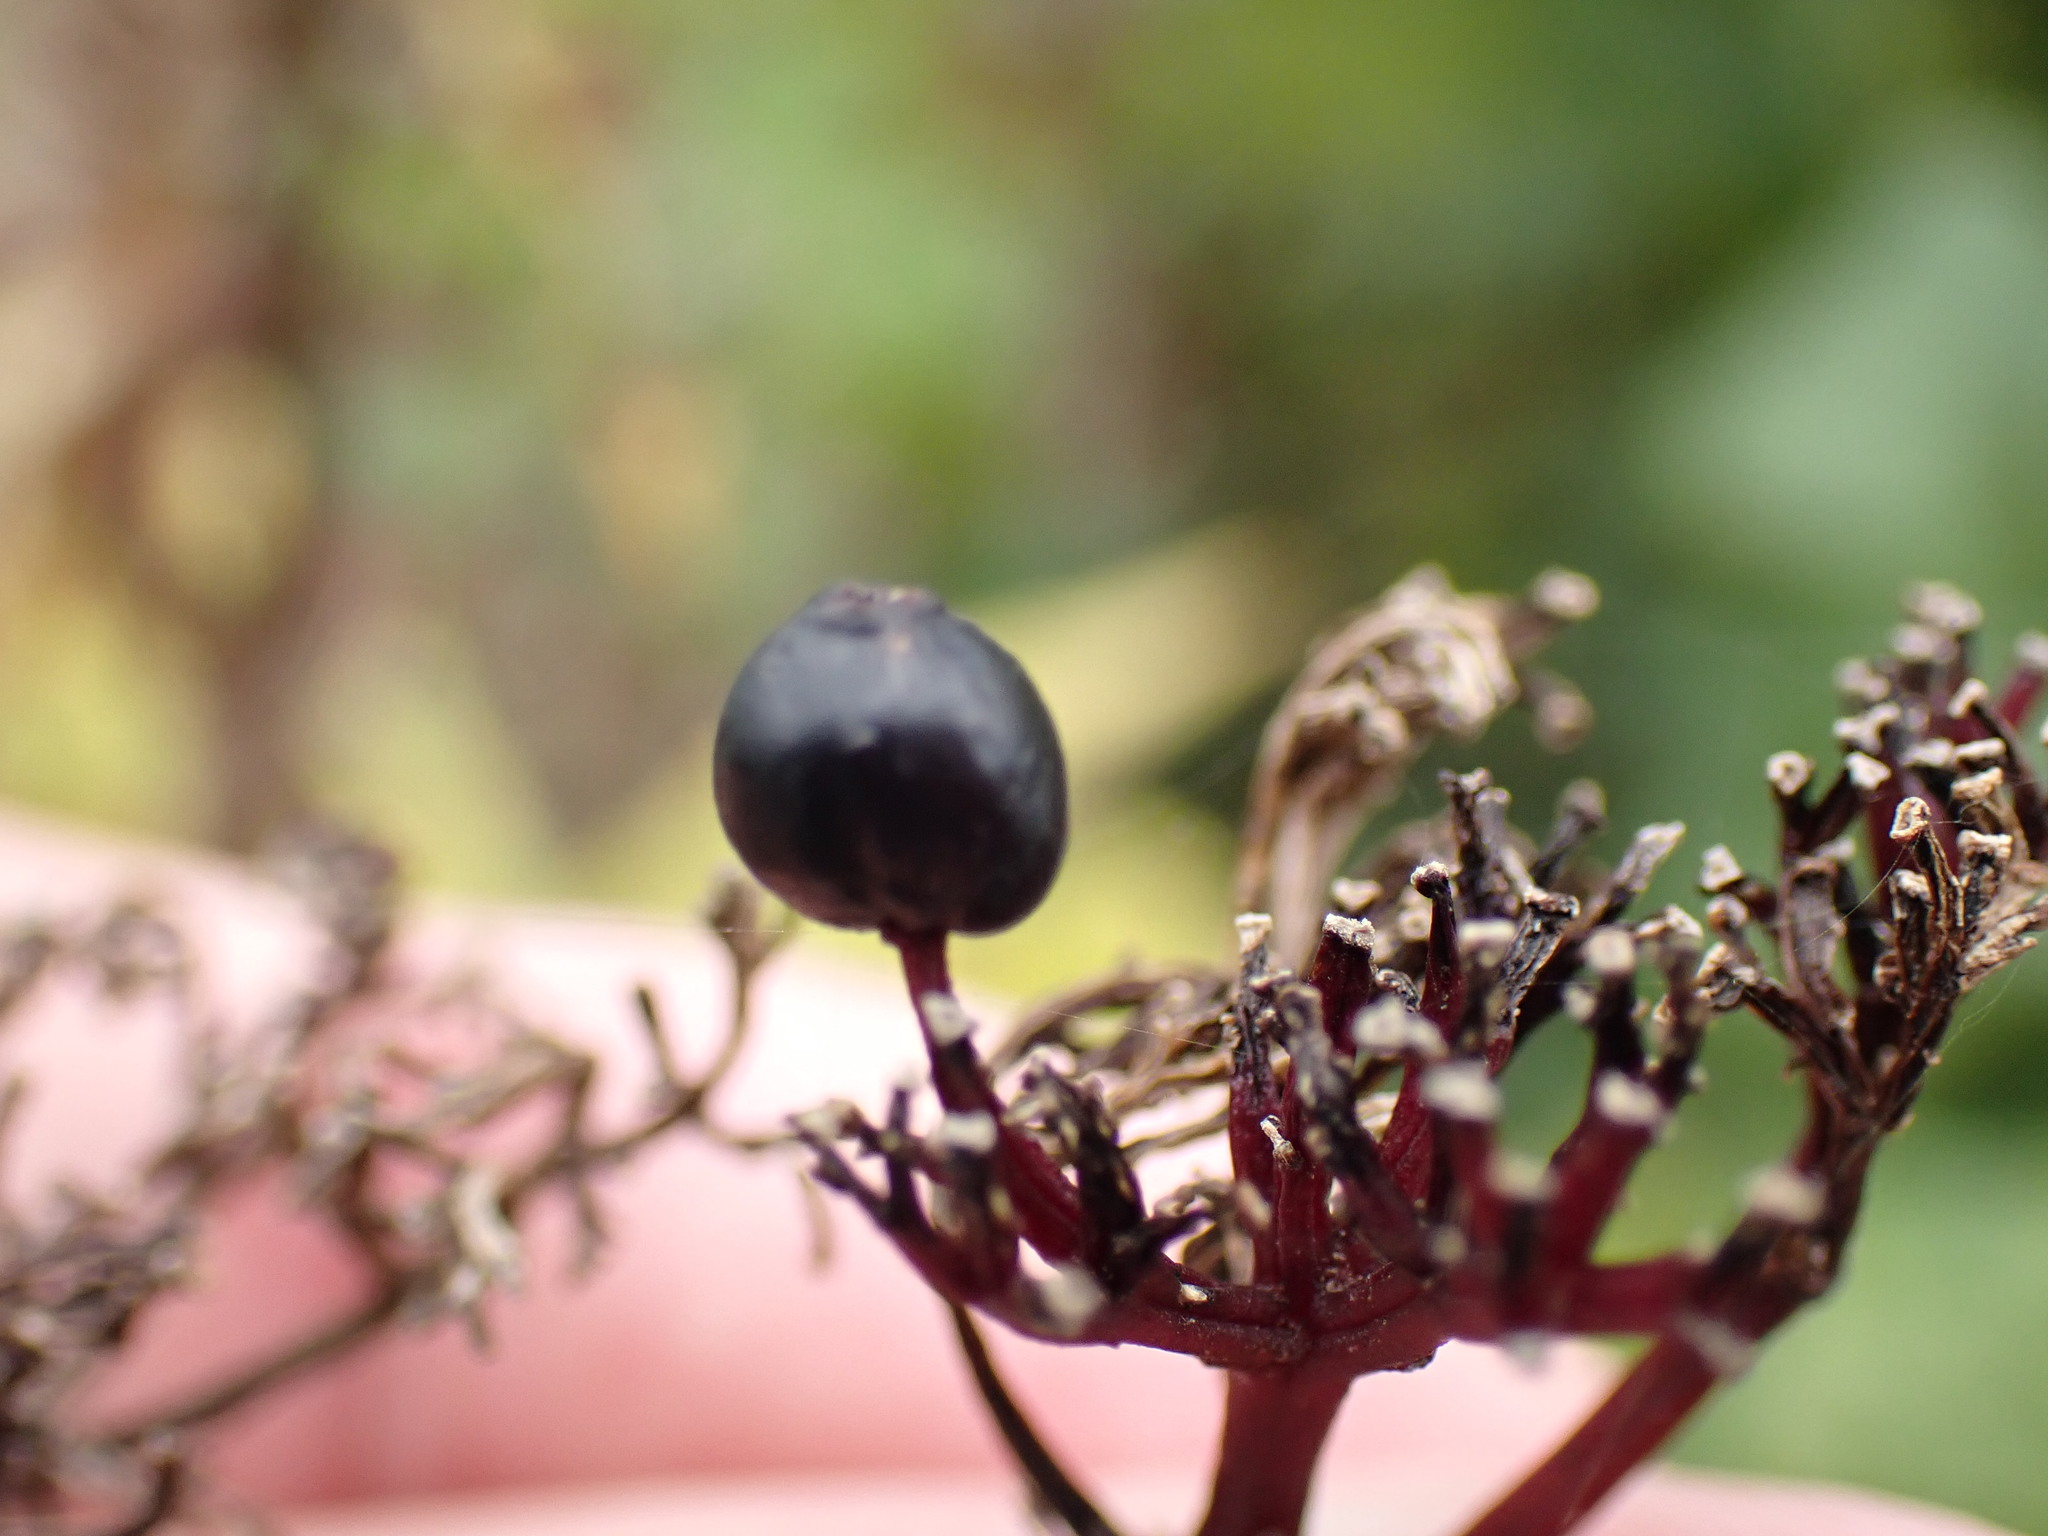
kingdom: Plantae
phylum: Tracheophyta
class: Magnoliopsida
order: Dipsacales
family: Viburnaceae
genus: Sambucus
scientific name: Sambucus ebulus
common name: Dwarf elder
